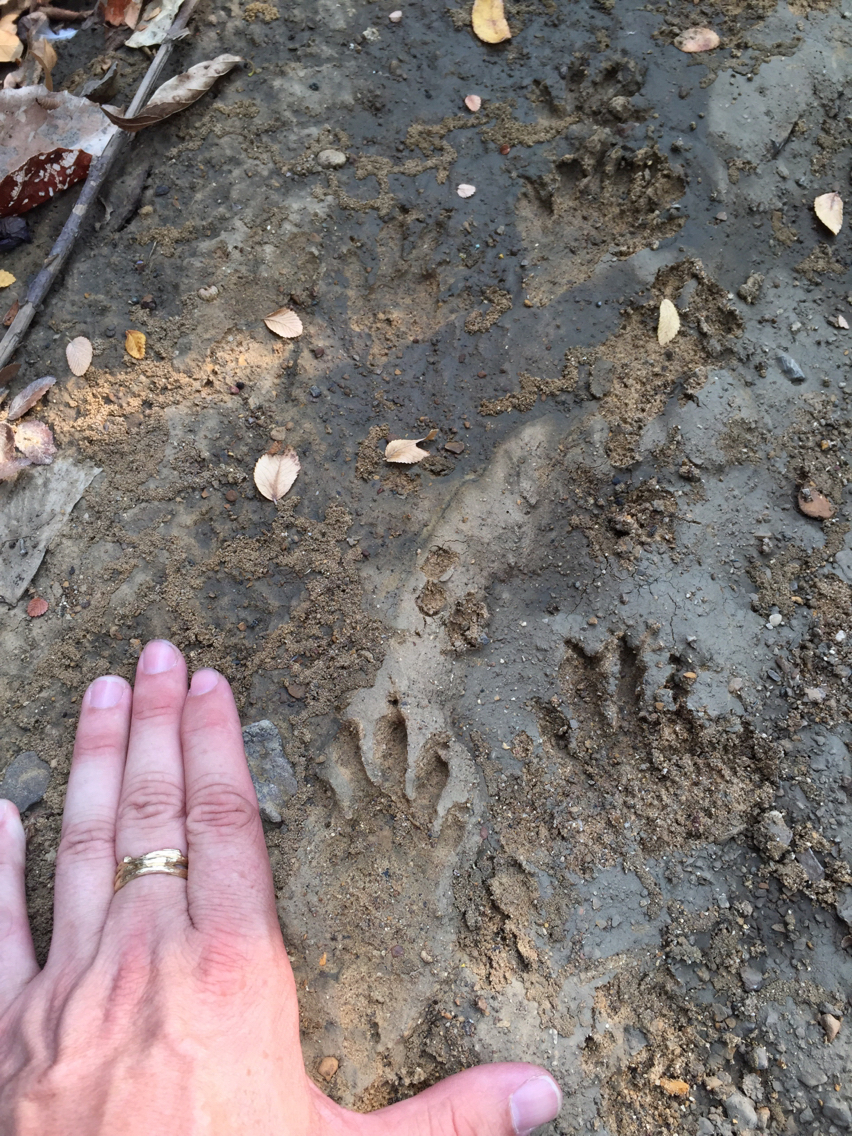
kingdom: Animalia
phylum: Chordata
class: Mammalia
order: Carnivora
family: Procyonidae
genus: Procyon
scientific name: Procyon lotor
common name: Raccoon
